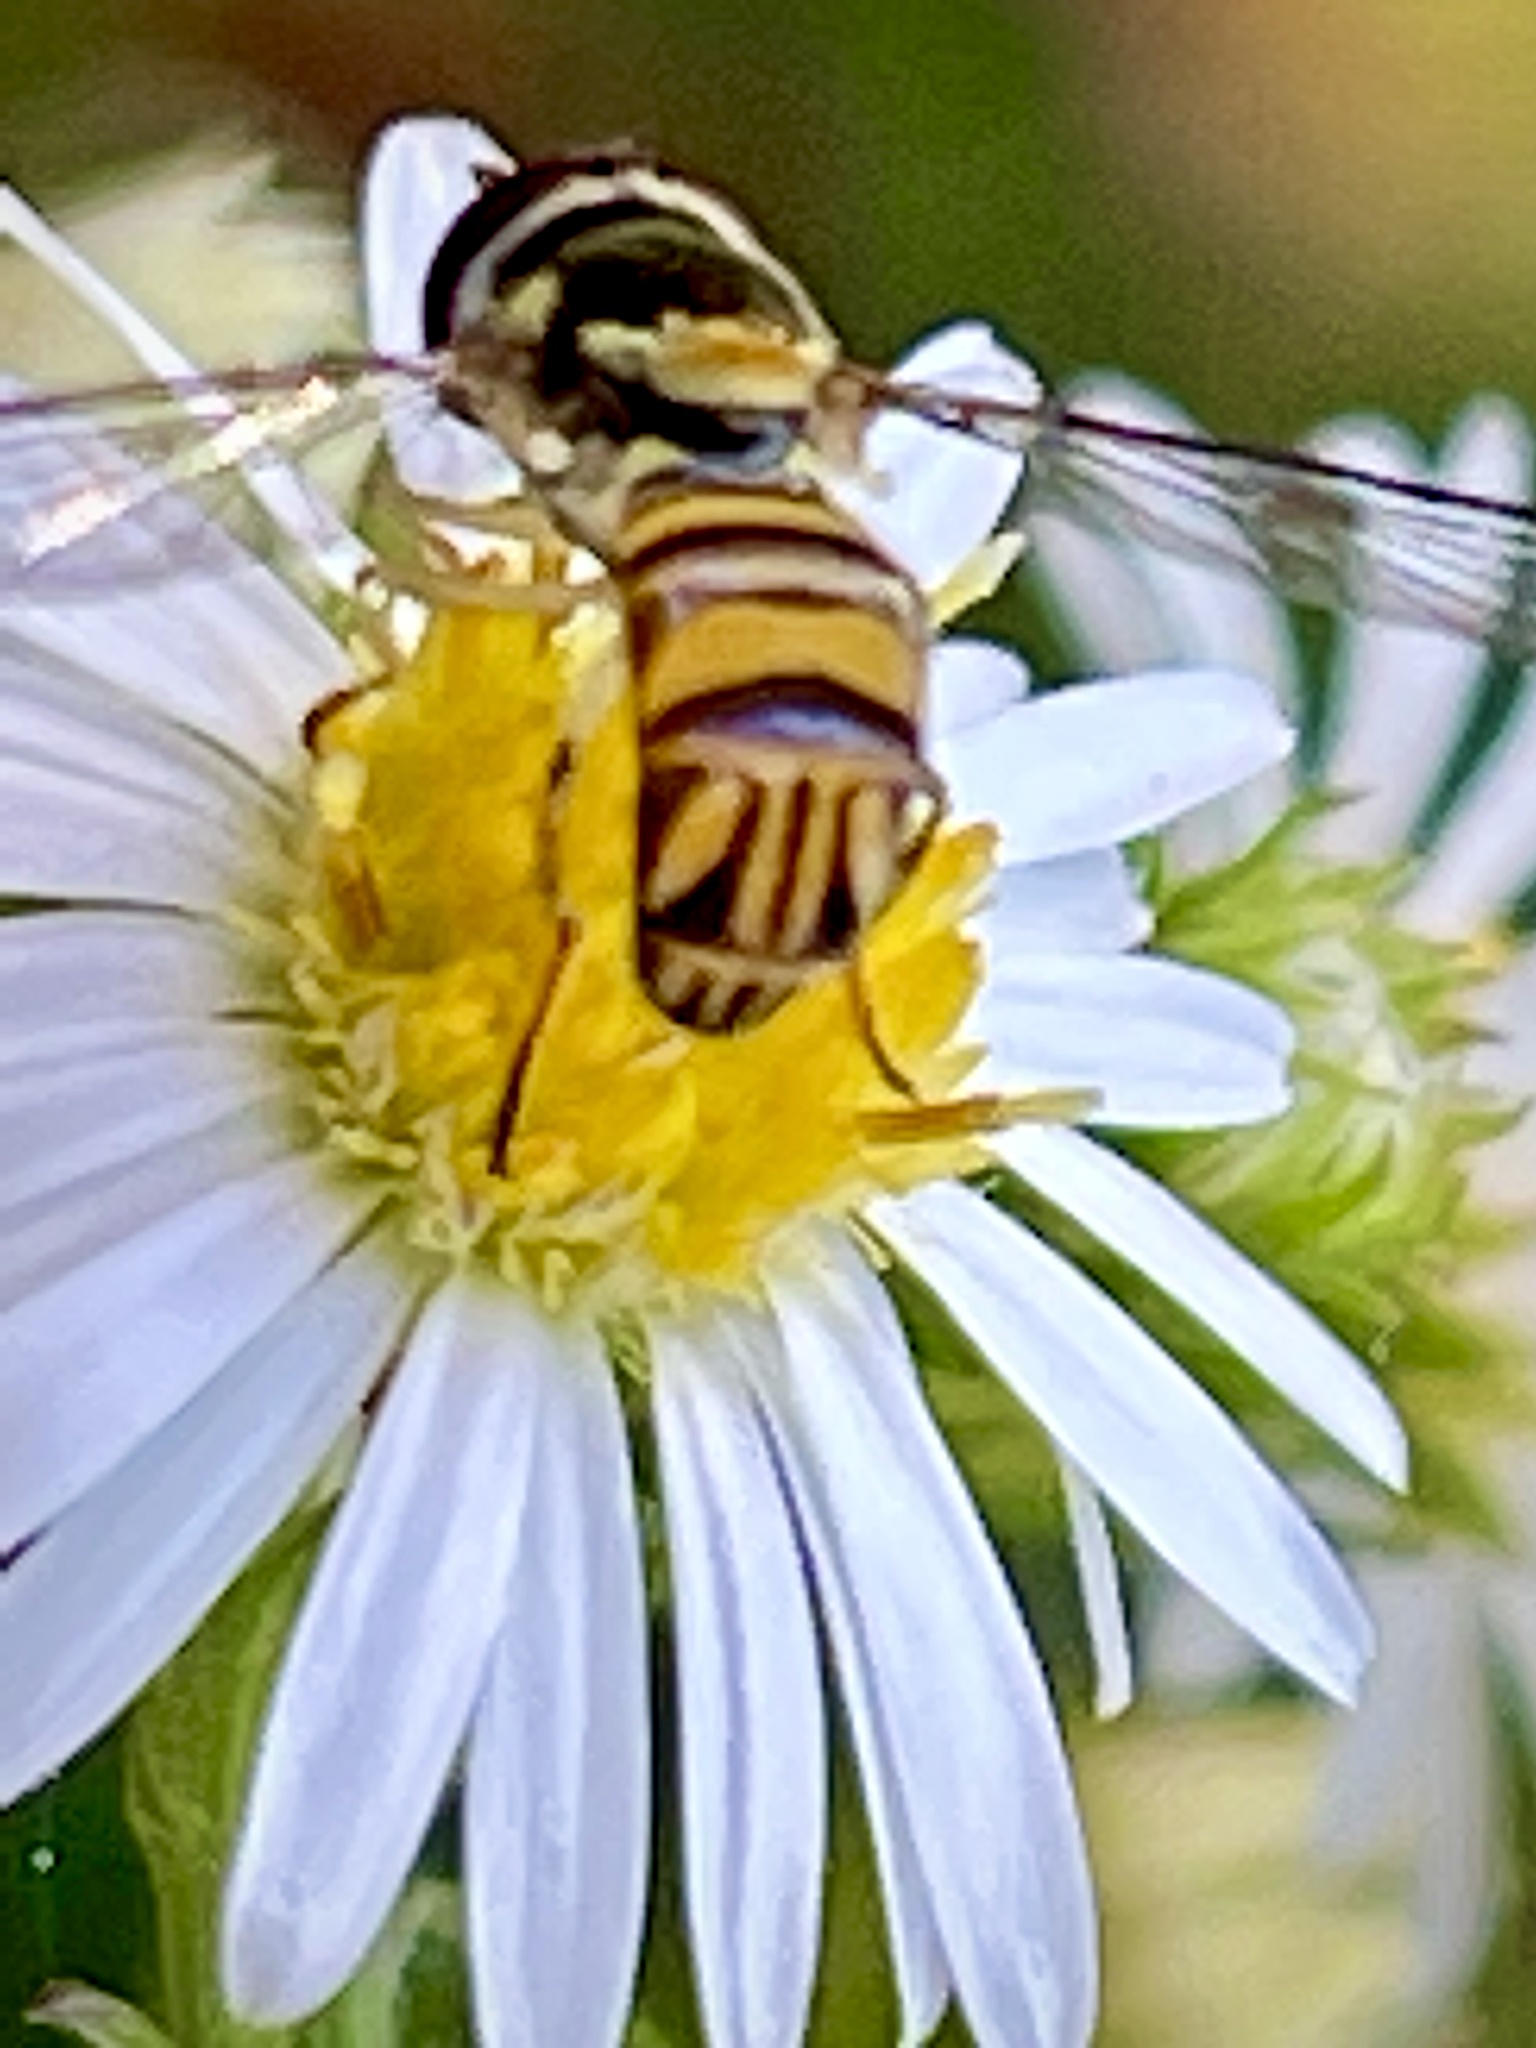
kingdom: Animalia
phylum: Arthropoda
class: Insecta
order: Diptera
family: Syrphidae
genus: Allograpta
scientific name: Allograpta obliqua
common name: Common oblique syrphid
